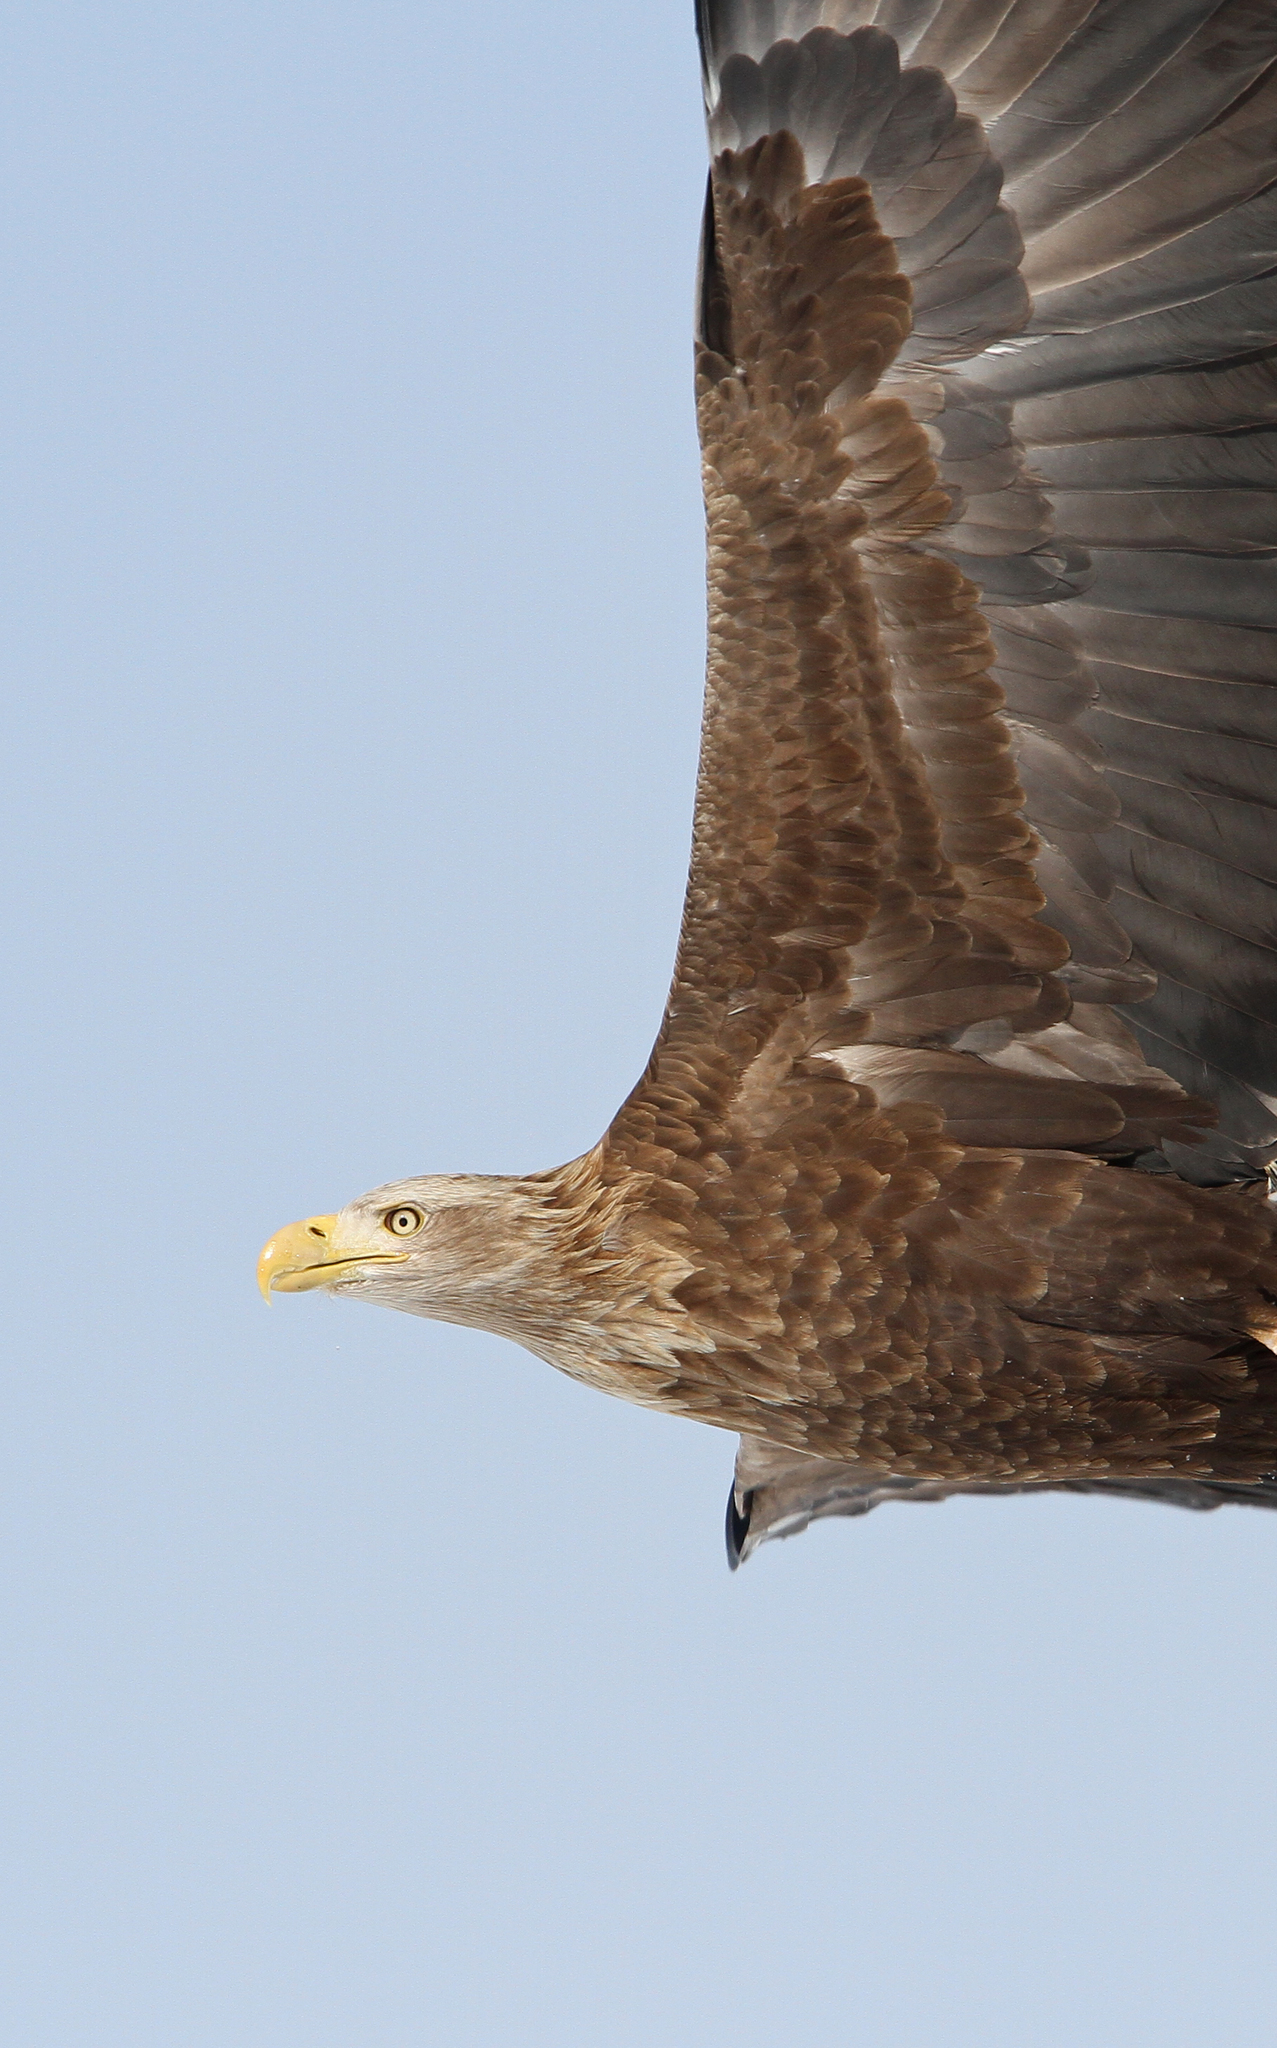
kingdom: Animalia
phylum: Chordata
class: Aves
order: Accipitriformes
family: Accipitridae
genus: Haliaeetus
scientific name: Haliaeetus albicilla
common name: White-tailed eagle
